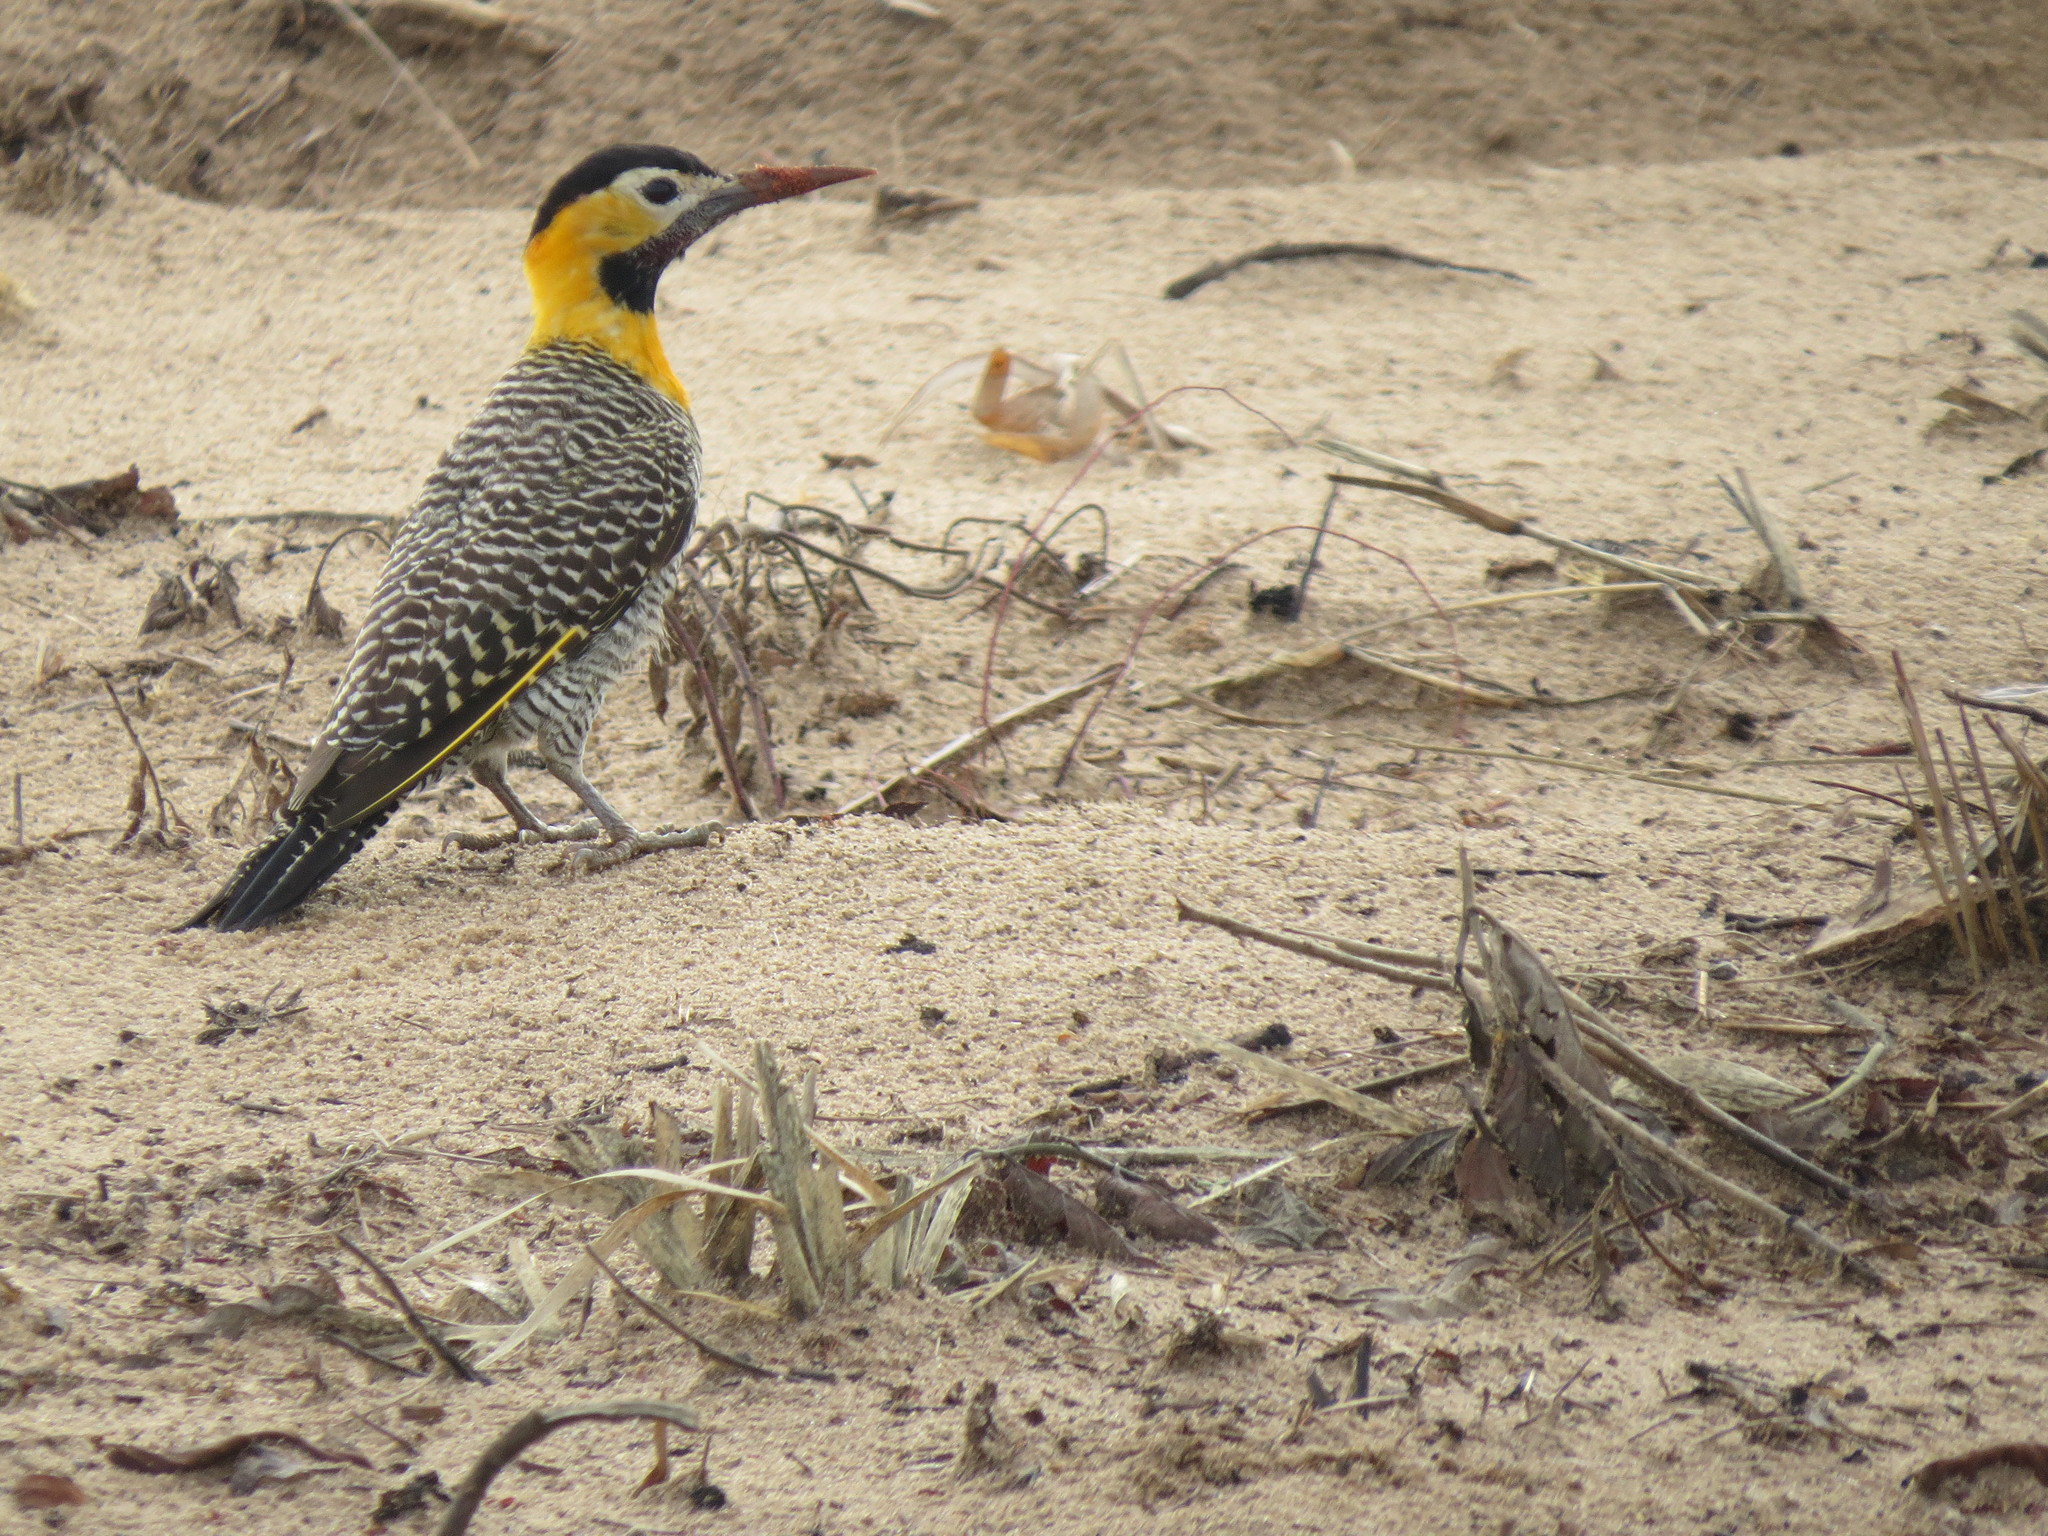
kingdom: Animalia
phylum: Chordata
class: Aves
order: Piciformes
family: Picidae
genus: Colaptes
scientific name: Colaptes campestris
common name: Campo flicker
